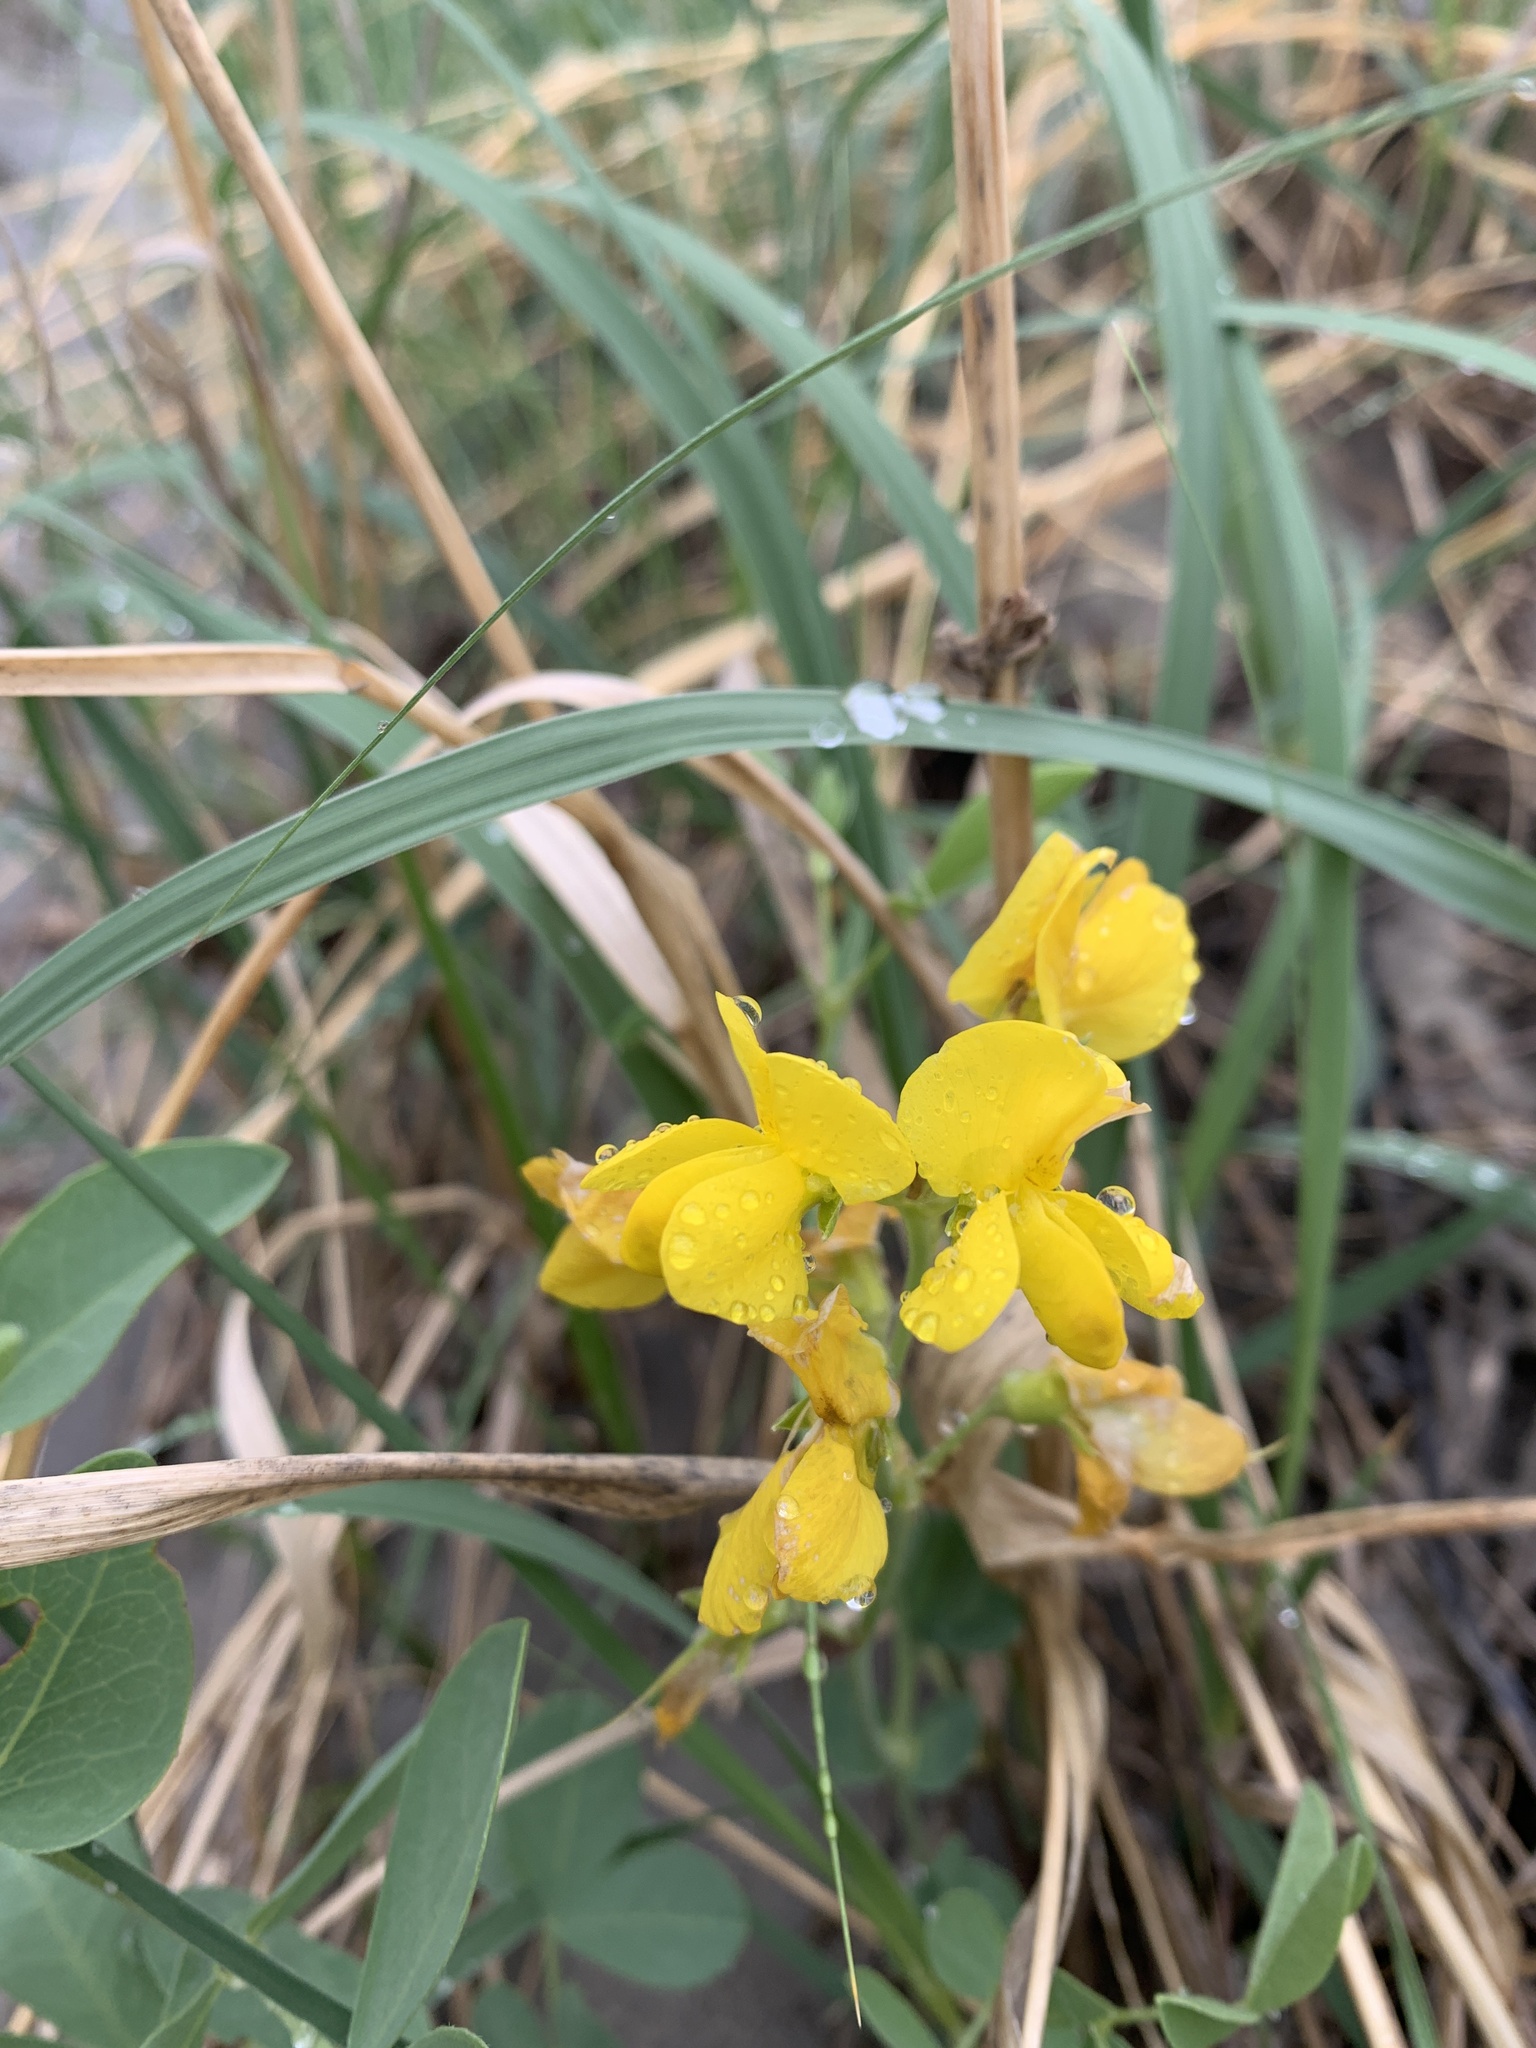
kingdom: Plantae
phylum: Tracheophyta
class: Magnoliopsida
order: Fabales
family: Fabaceae
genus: Thermopsis
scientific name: Thermopsis rhombifolia
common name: Circle-pod-pea
